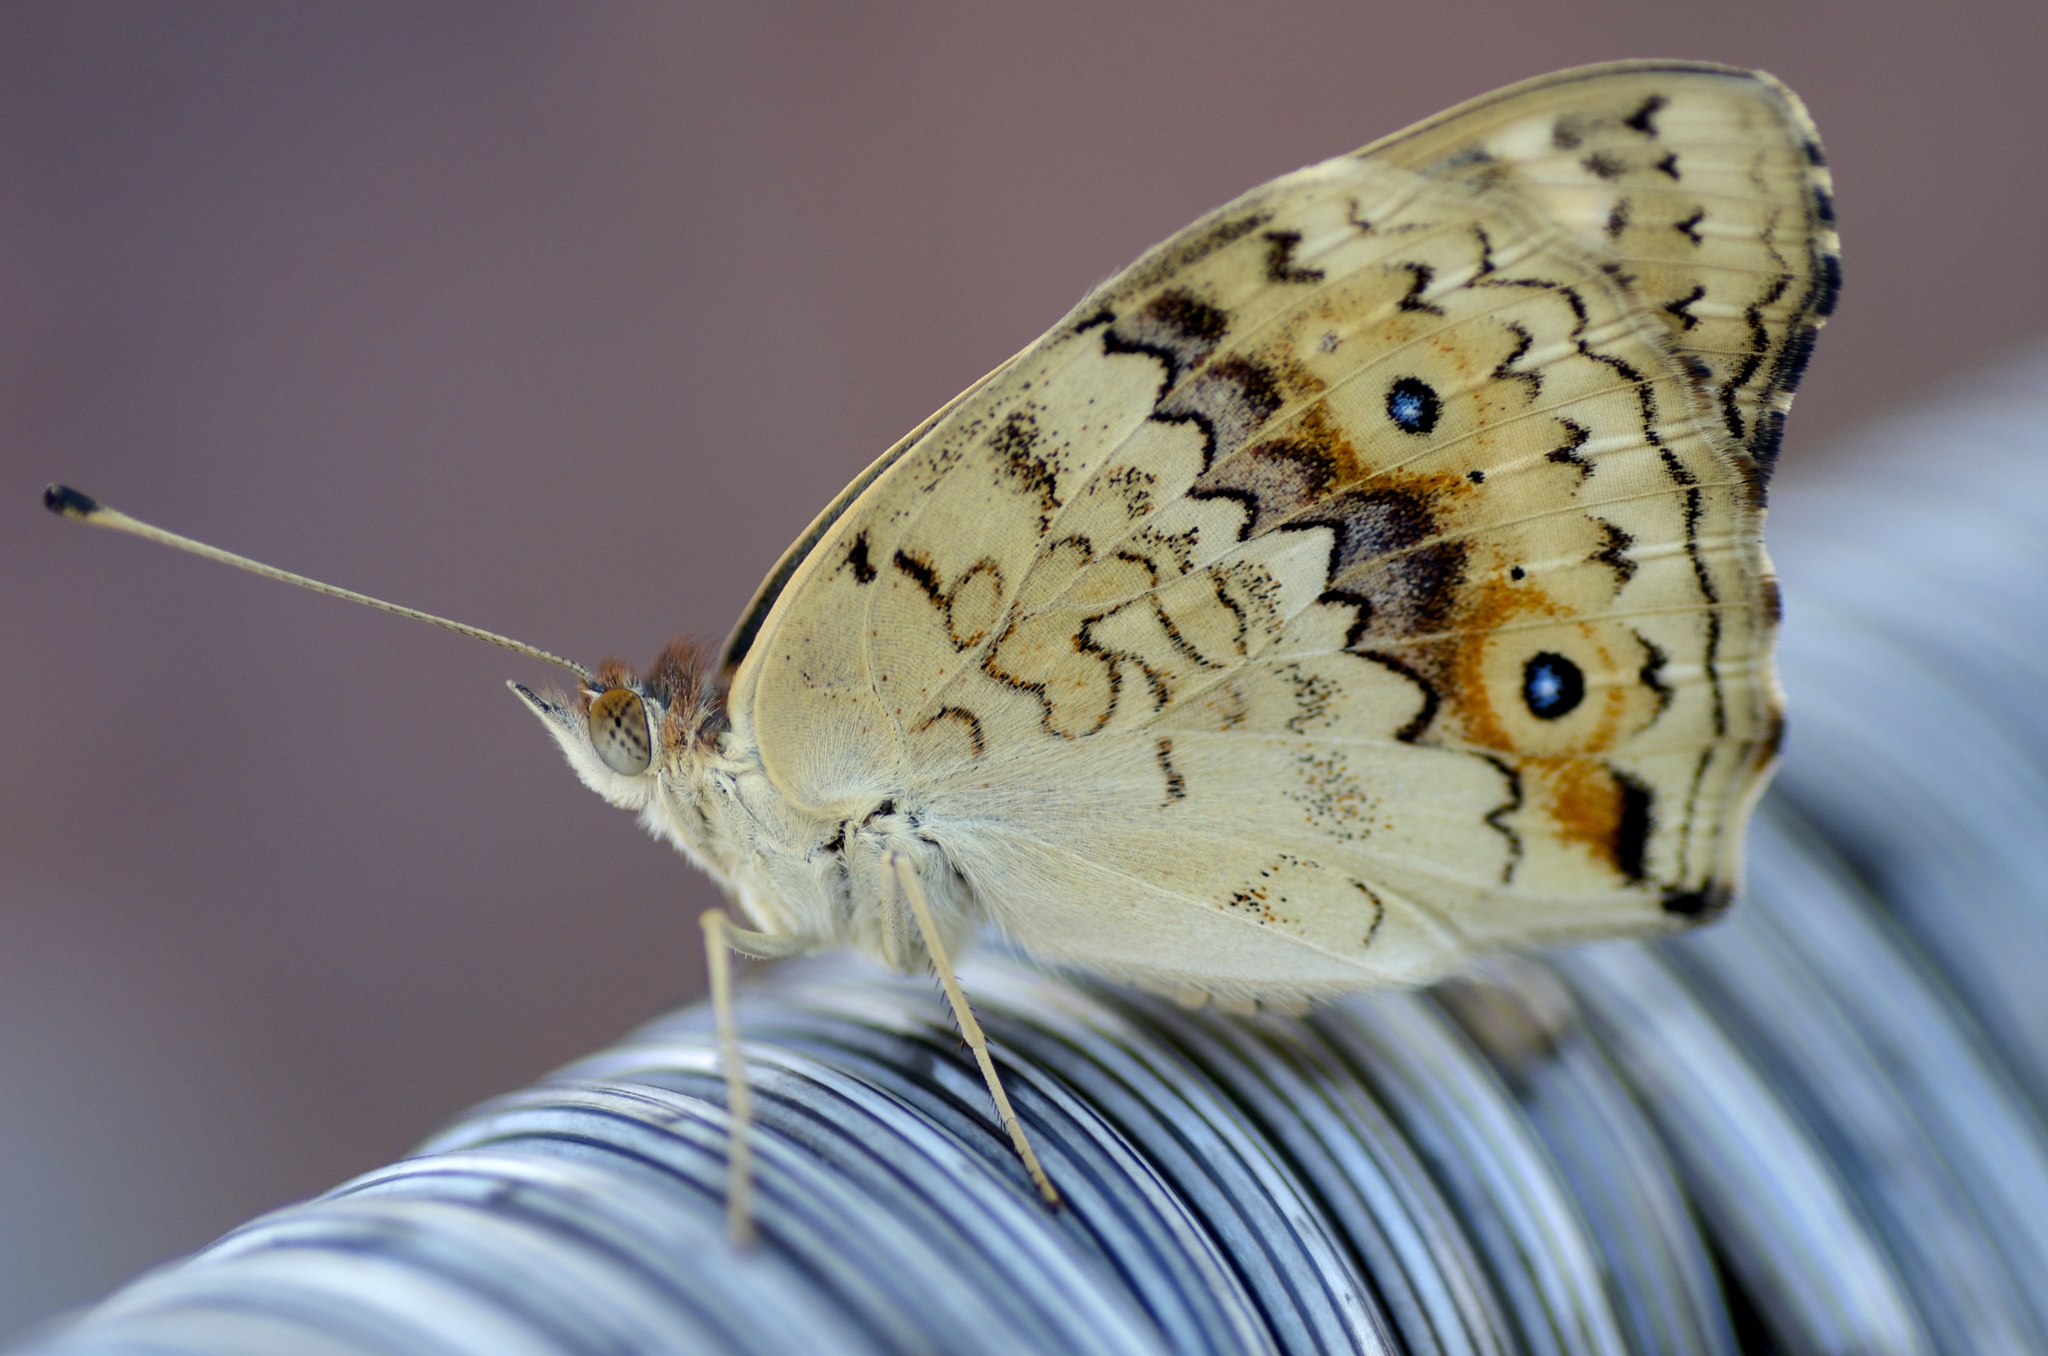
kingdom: Animalia
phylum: Arthropoda
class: Insecta
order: Lepidoptera
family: Nymphalidae
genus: Junonia
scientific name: Junonia villida
